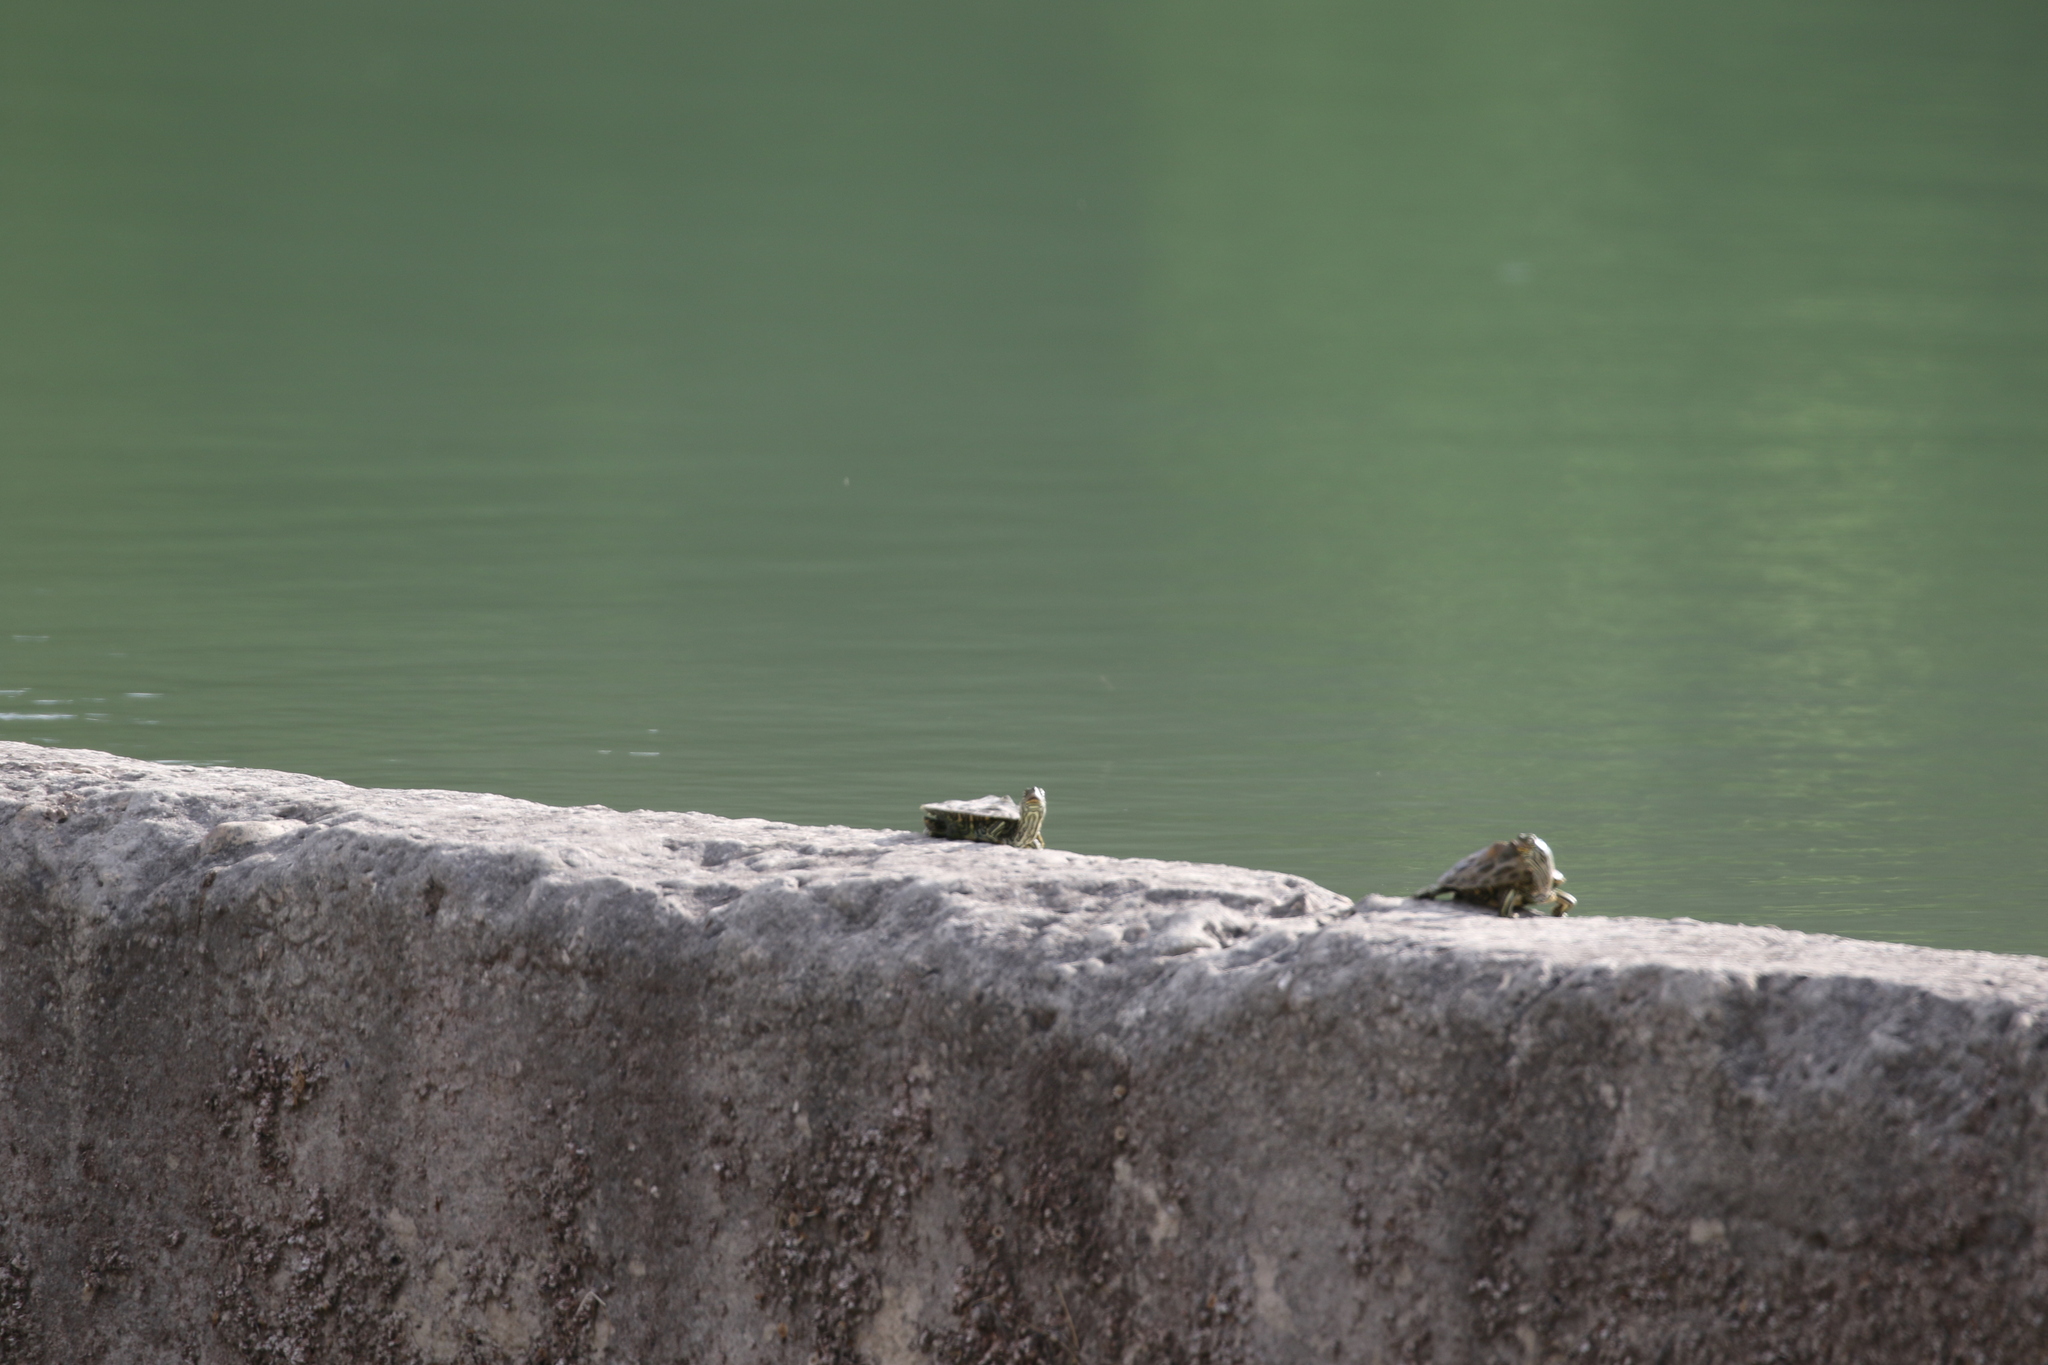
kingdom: Animalia
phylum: Chordata
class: Testudines
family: Emydidae
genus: Graptemys
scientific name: Graptemys versa
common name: Texas map turtle
